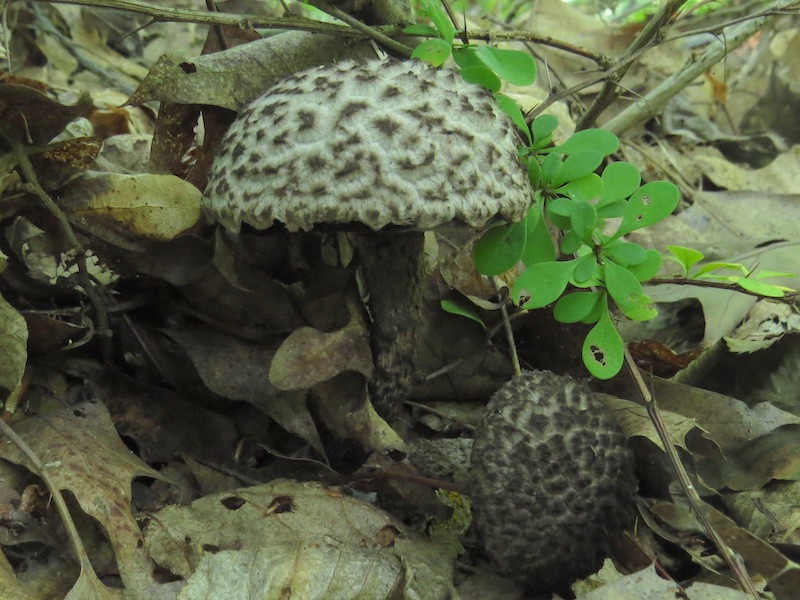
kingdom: Fungi
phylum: Basidiomycota
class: Agaricomycetes
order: Boletales
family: Boletaceae
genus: Strobilomyces
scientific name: Strobilomyces strobilaceus
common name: Old man of the woods
